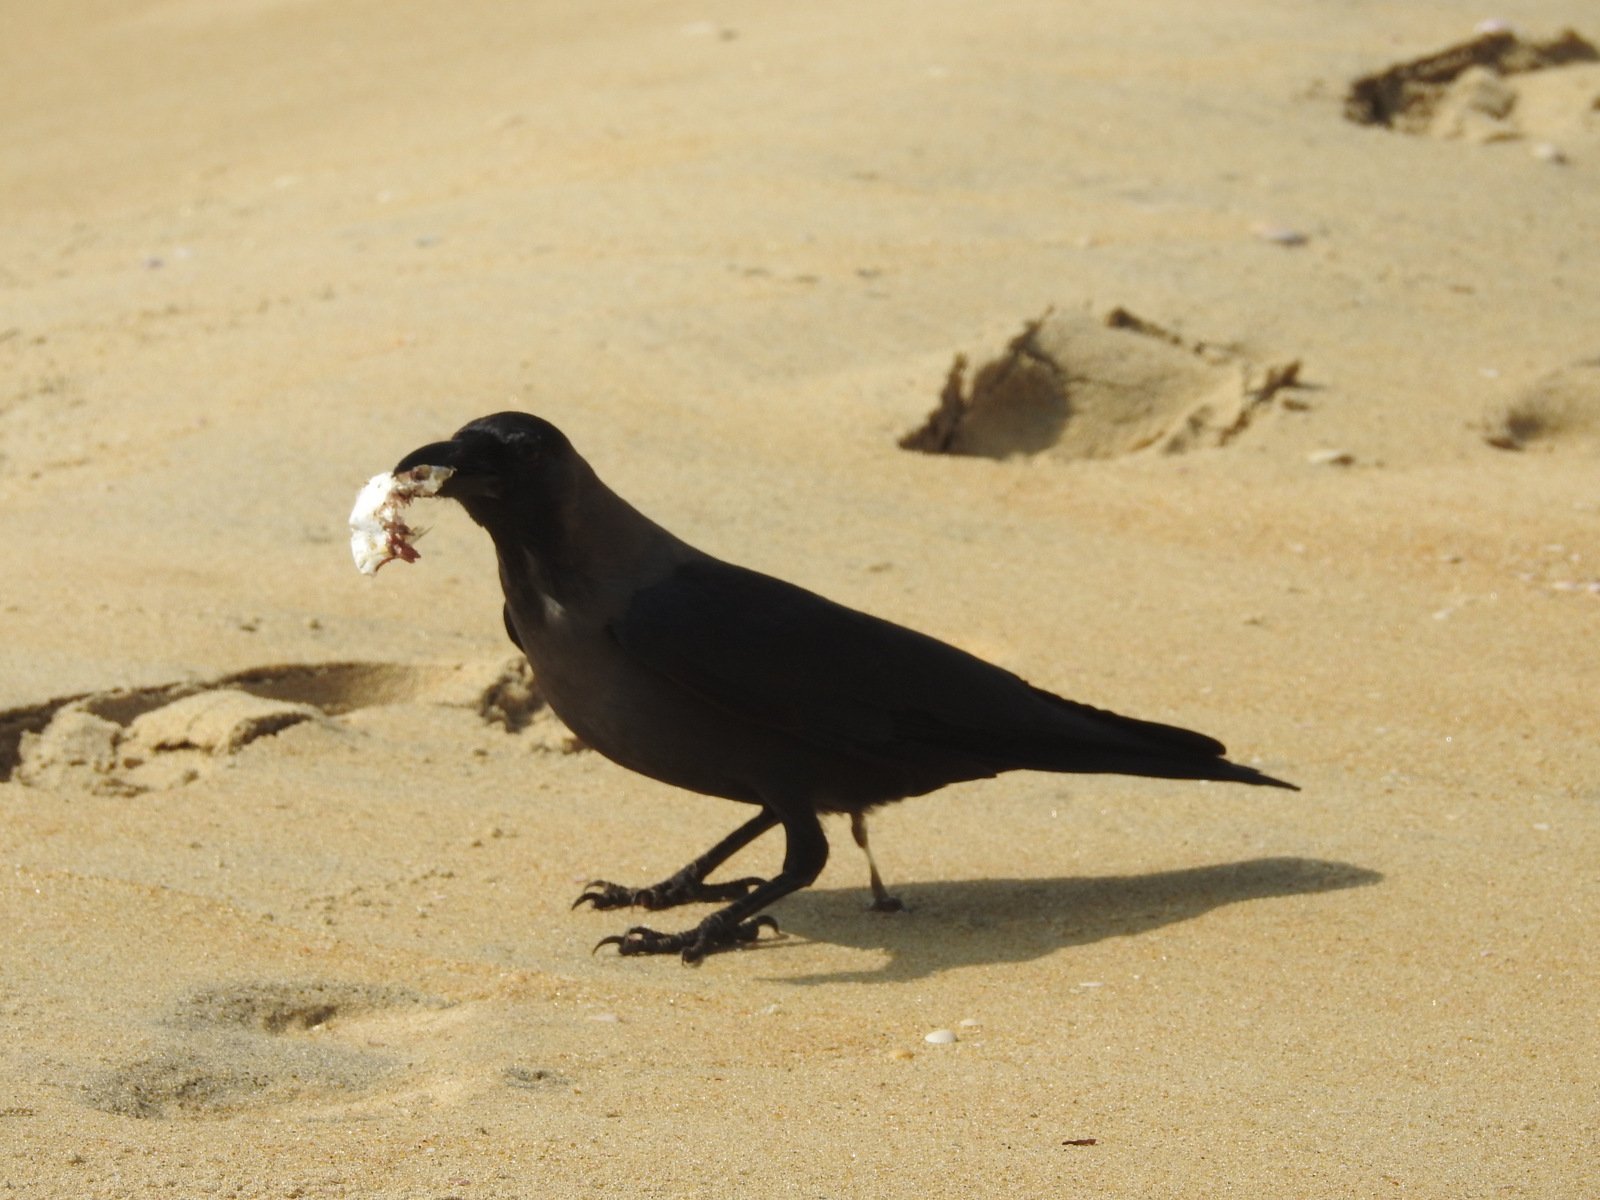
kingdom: Animalia
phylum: Chordata
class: Aves
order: Passeriformes
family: Corvidae
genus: Corvus
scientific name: Corvus splendens
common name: House crow
